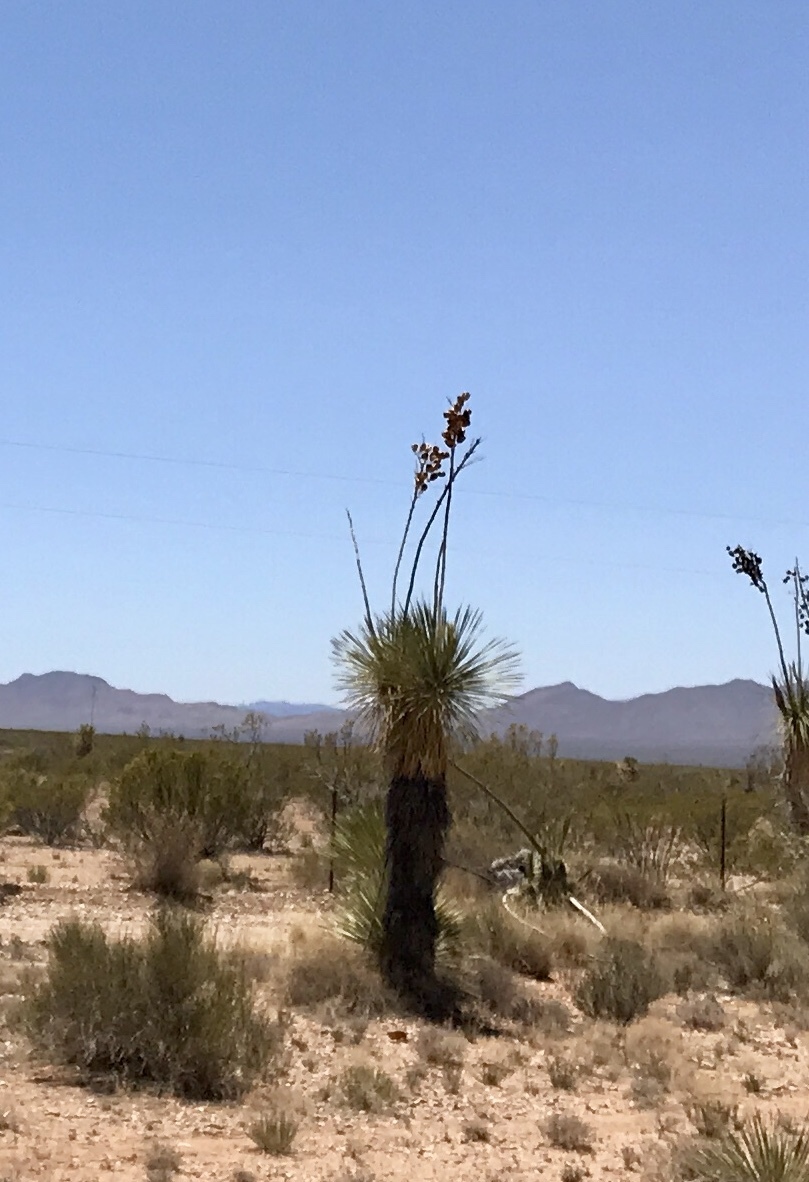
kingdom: Plantae
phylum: Tracheophyta
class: Liliopsida
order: Asparagales
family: Asparagaceae
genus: Yucca
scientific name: Yucca elata
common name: Palmella
